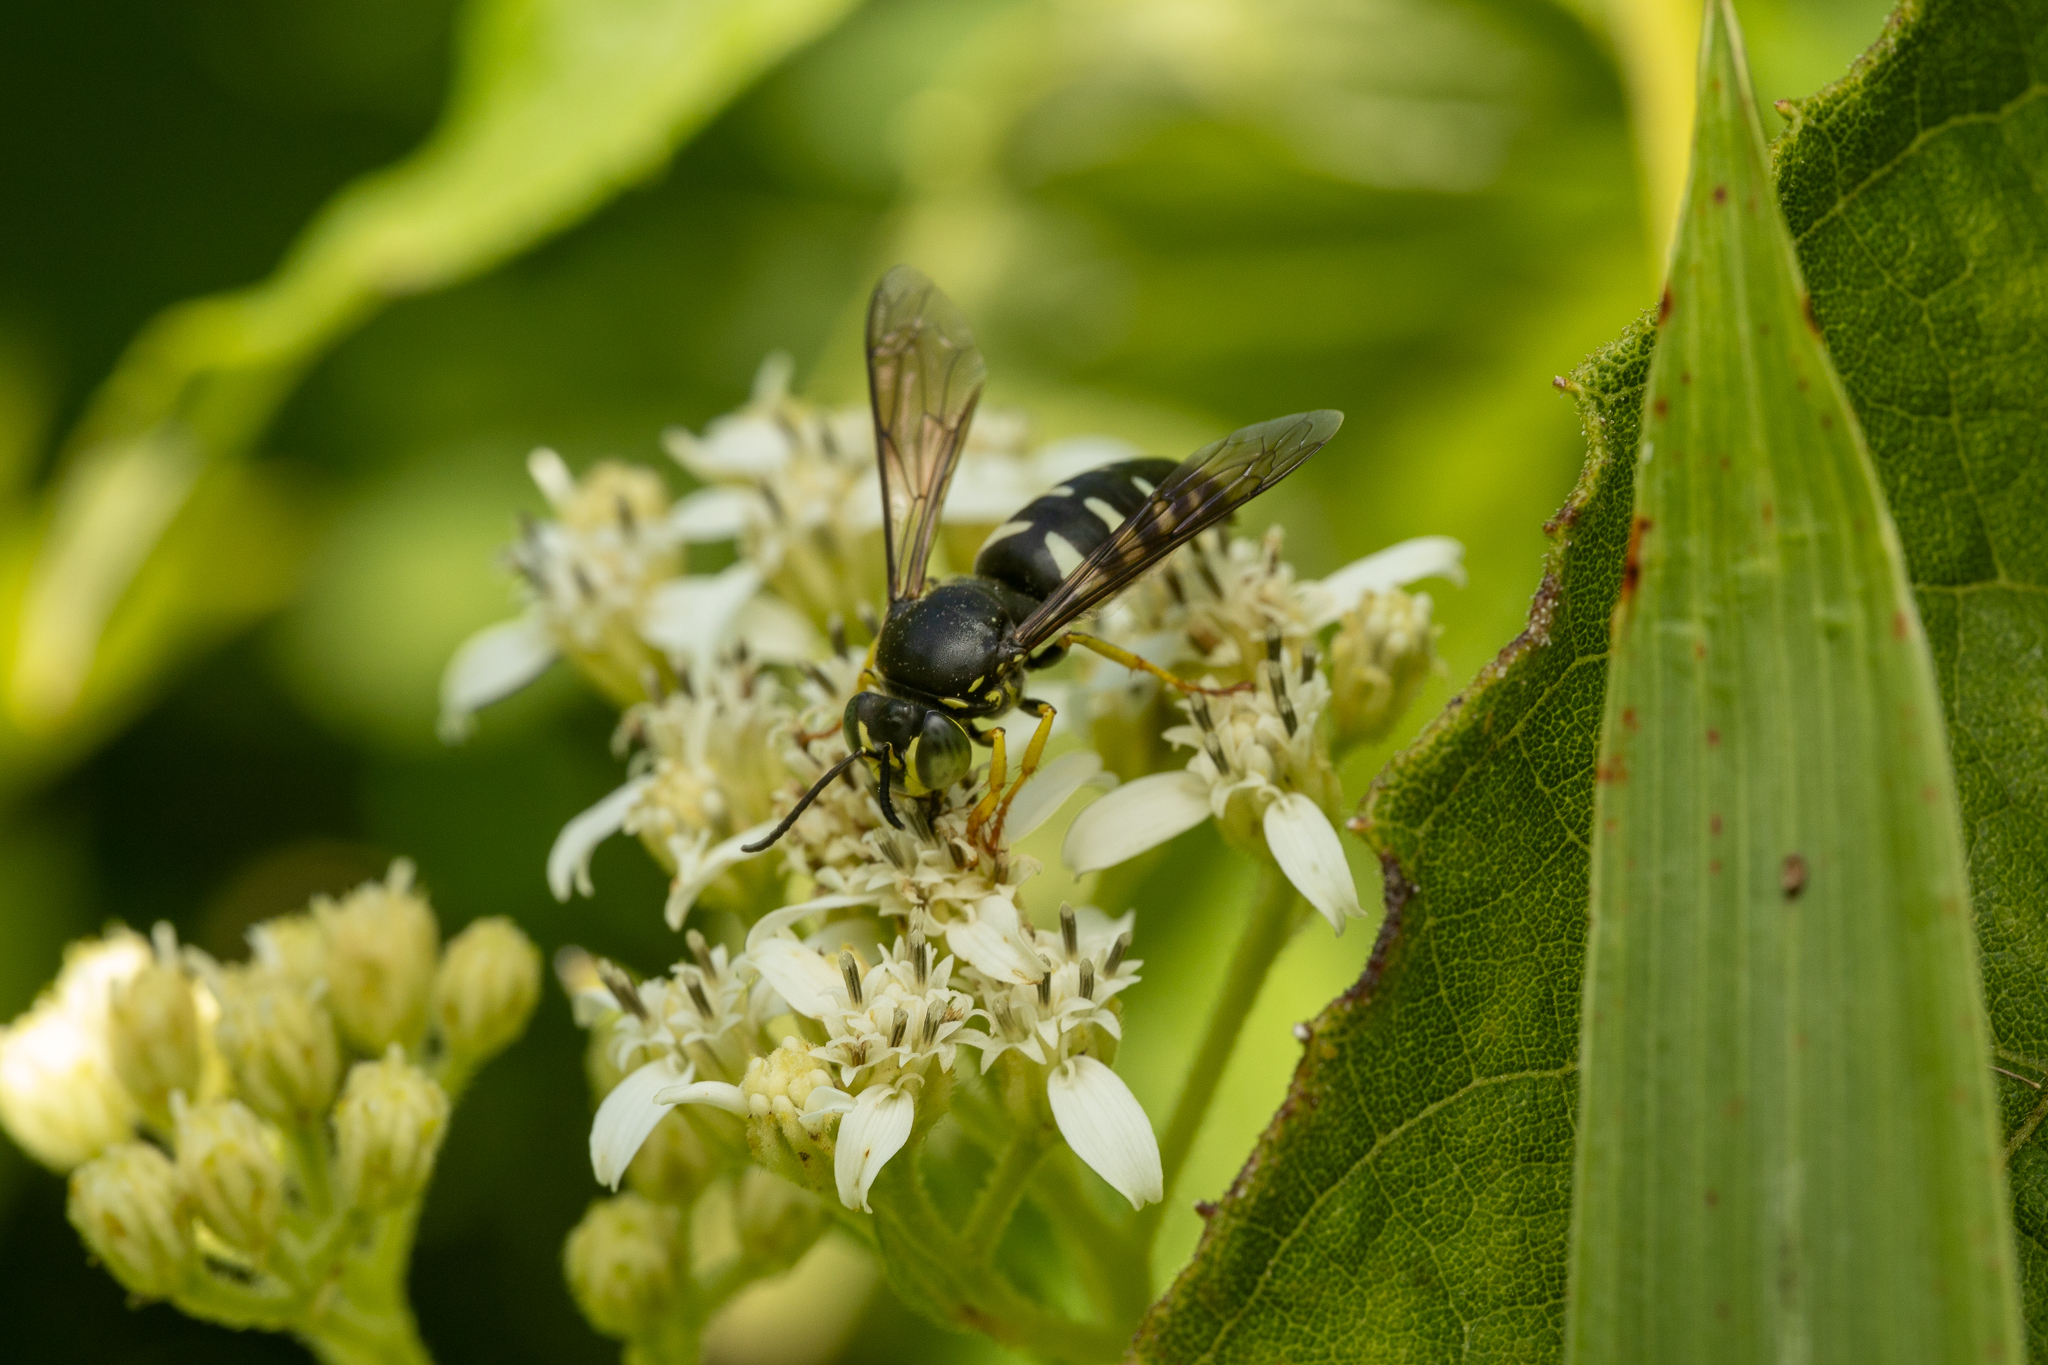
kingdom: Animalia
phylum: Arthropoda
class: Insecta
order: Hymenoptera
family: Crabronidae
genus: Bicyrtes
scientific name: Bicyrtes quadrifasciatus
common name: Four-banded stink bug hunter wasp
